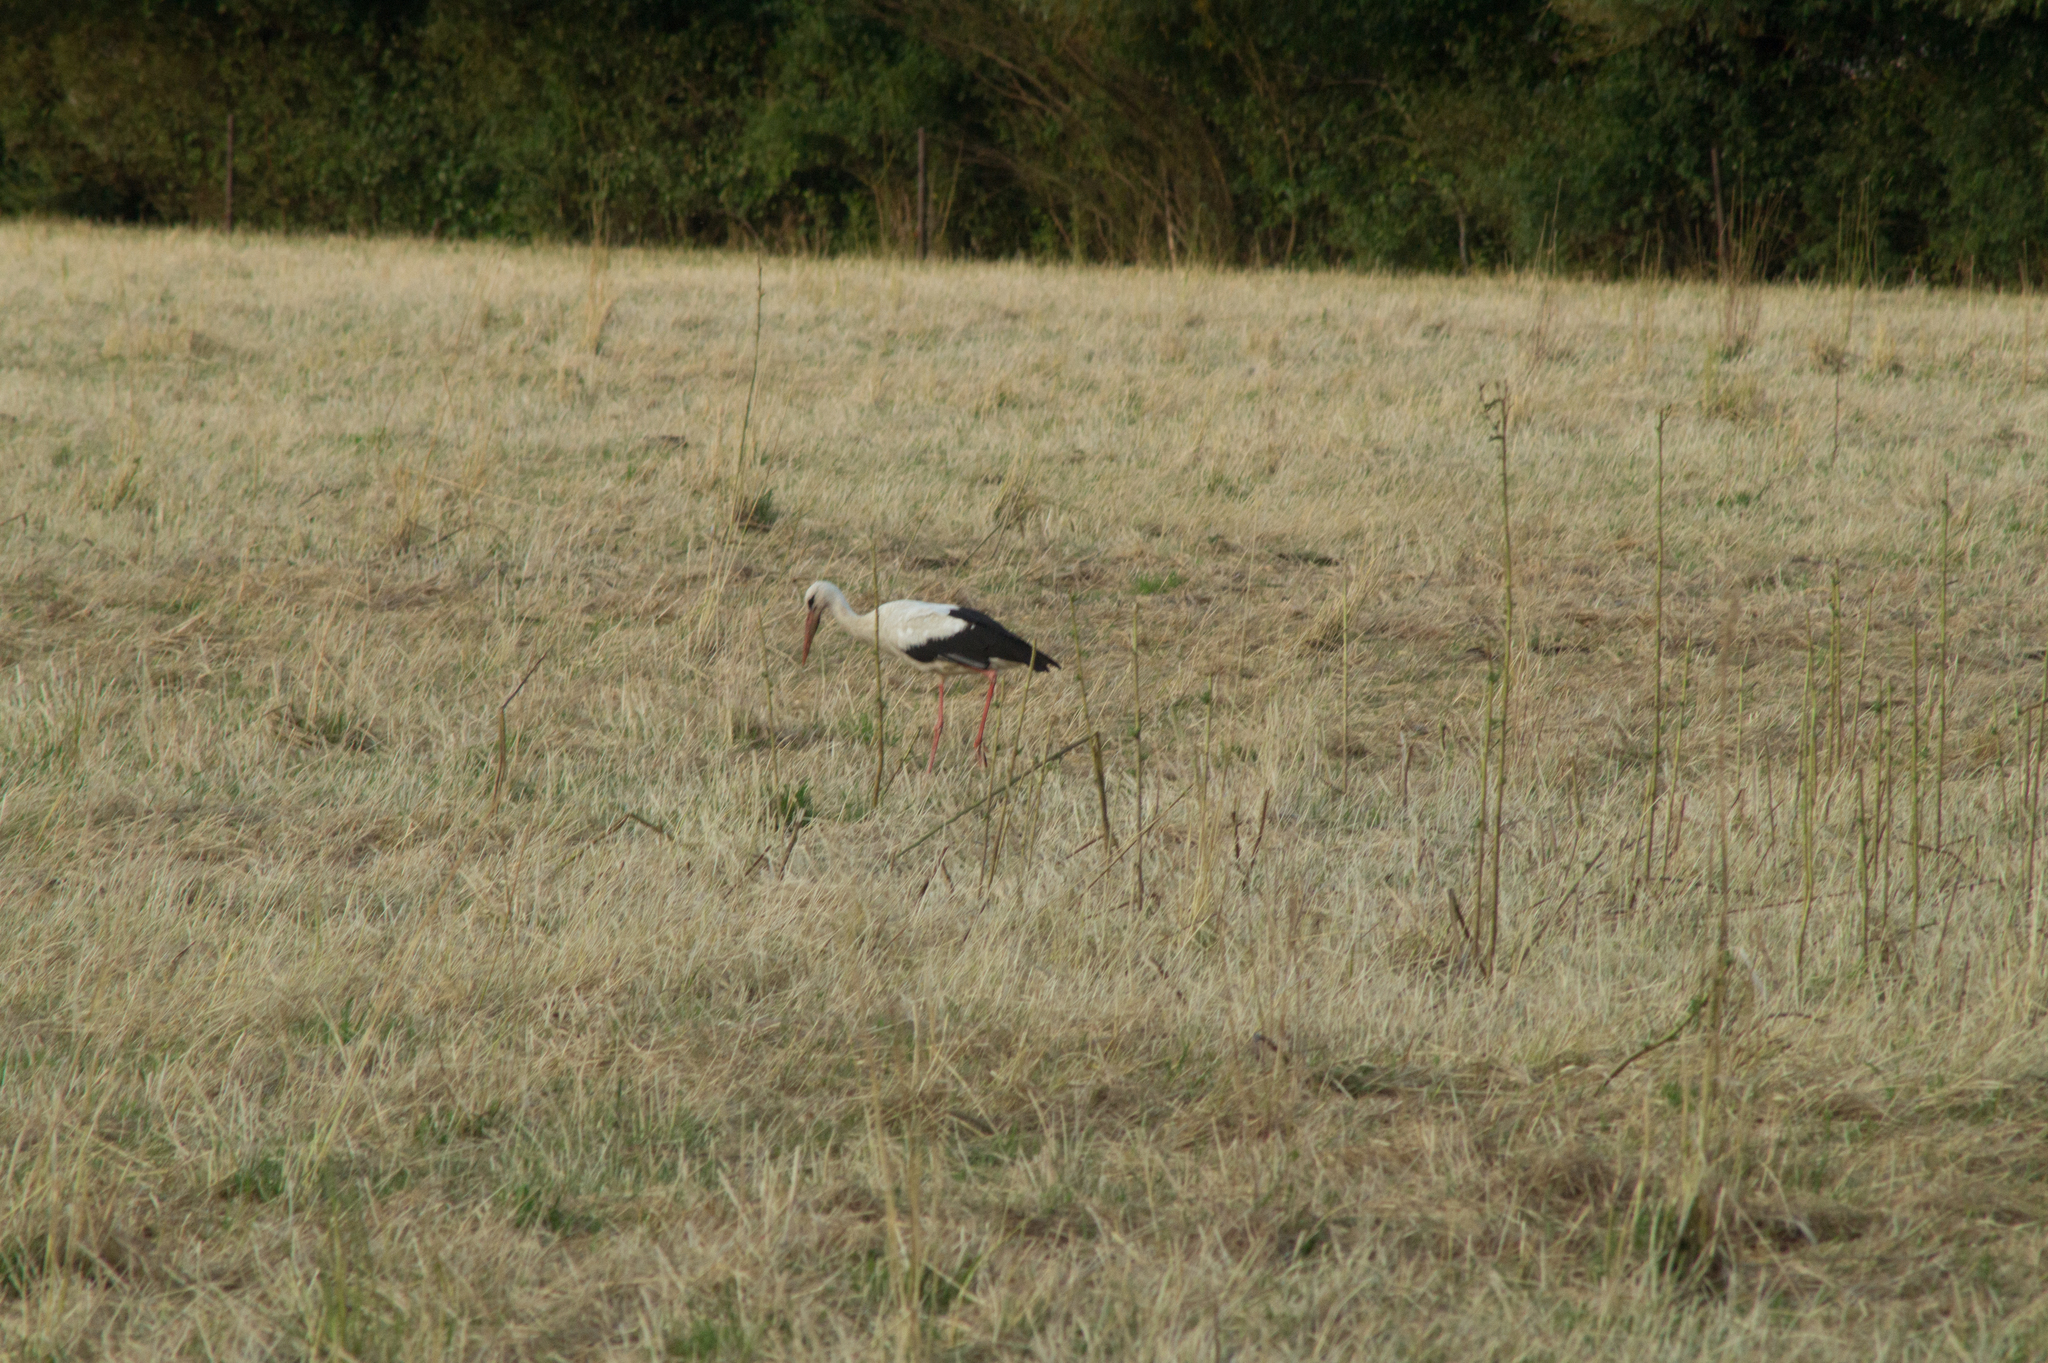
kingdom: Animalia
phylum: Chordata
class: Aves
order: Ciconiiformes
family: Ciconiidae
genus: Ciconia
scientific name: Ciconia ciconia
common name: White stork
